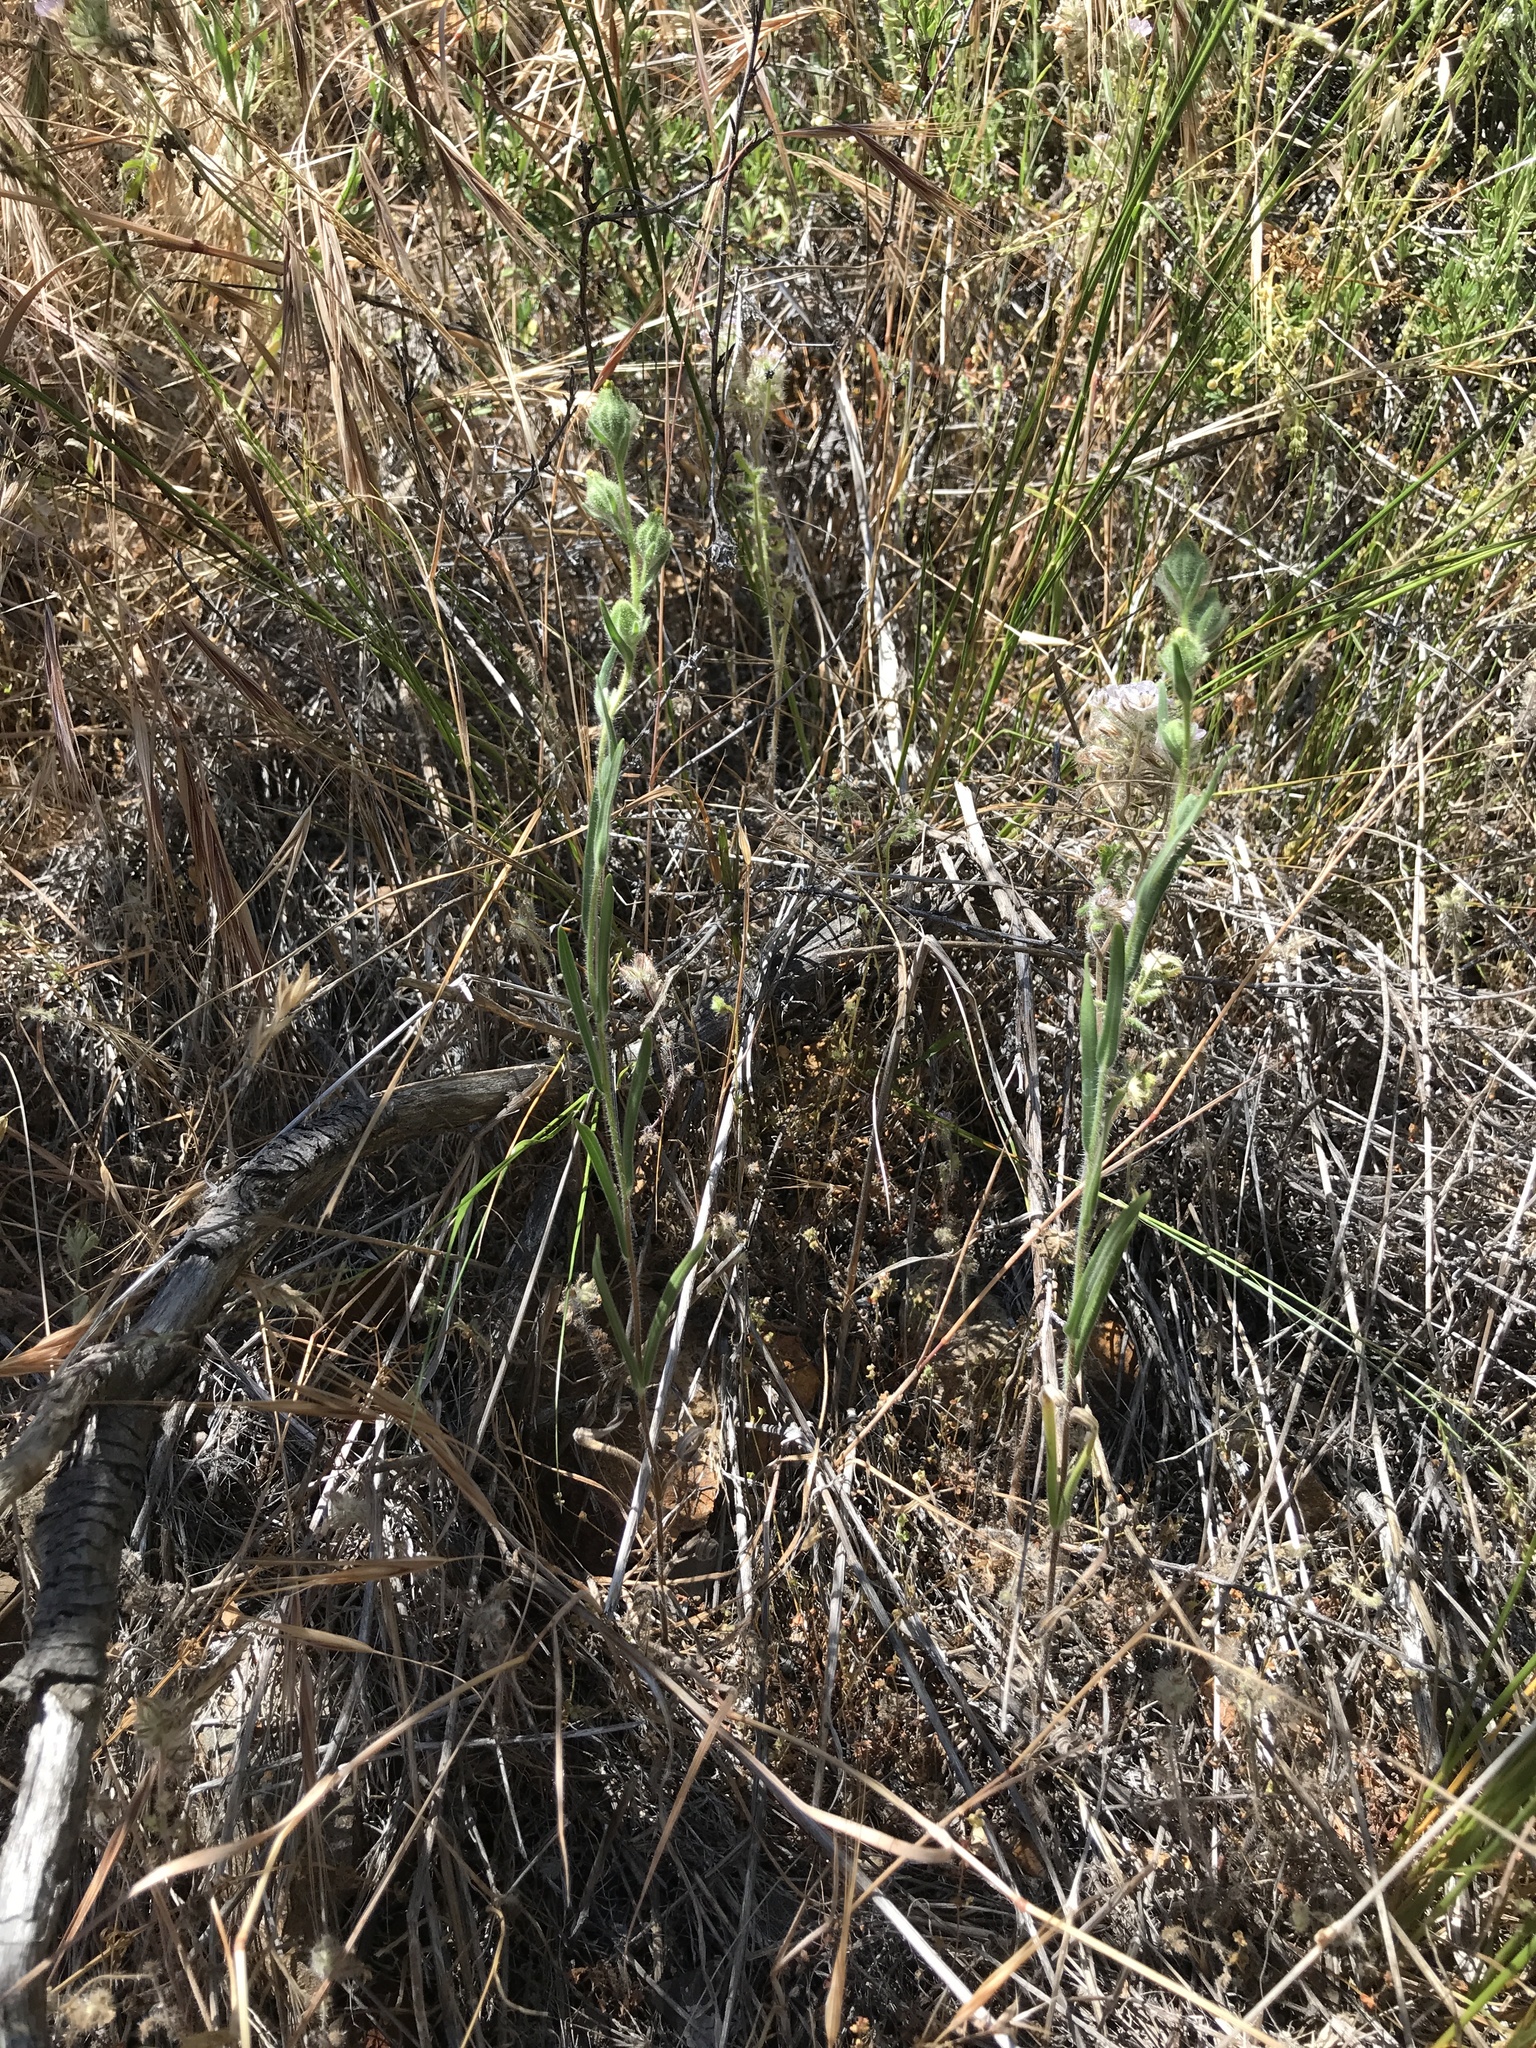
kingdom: Plantae
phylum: Tracheophyta
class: Magnoliopsida
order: Asterales
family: Asteraceae
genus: Madia
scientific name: Madia gracilis
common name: Grassy tarweed
